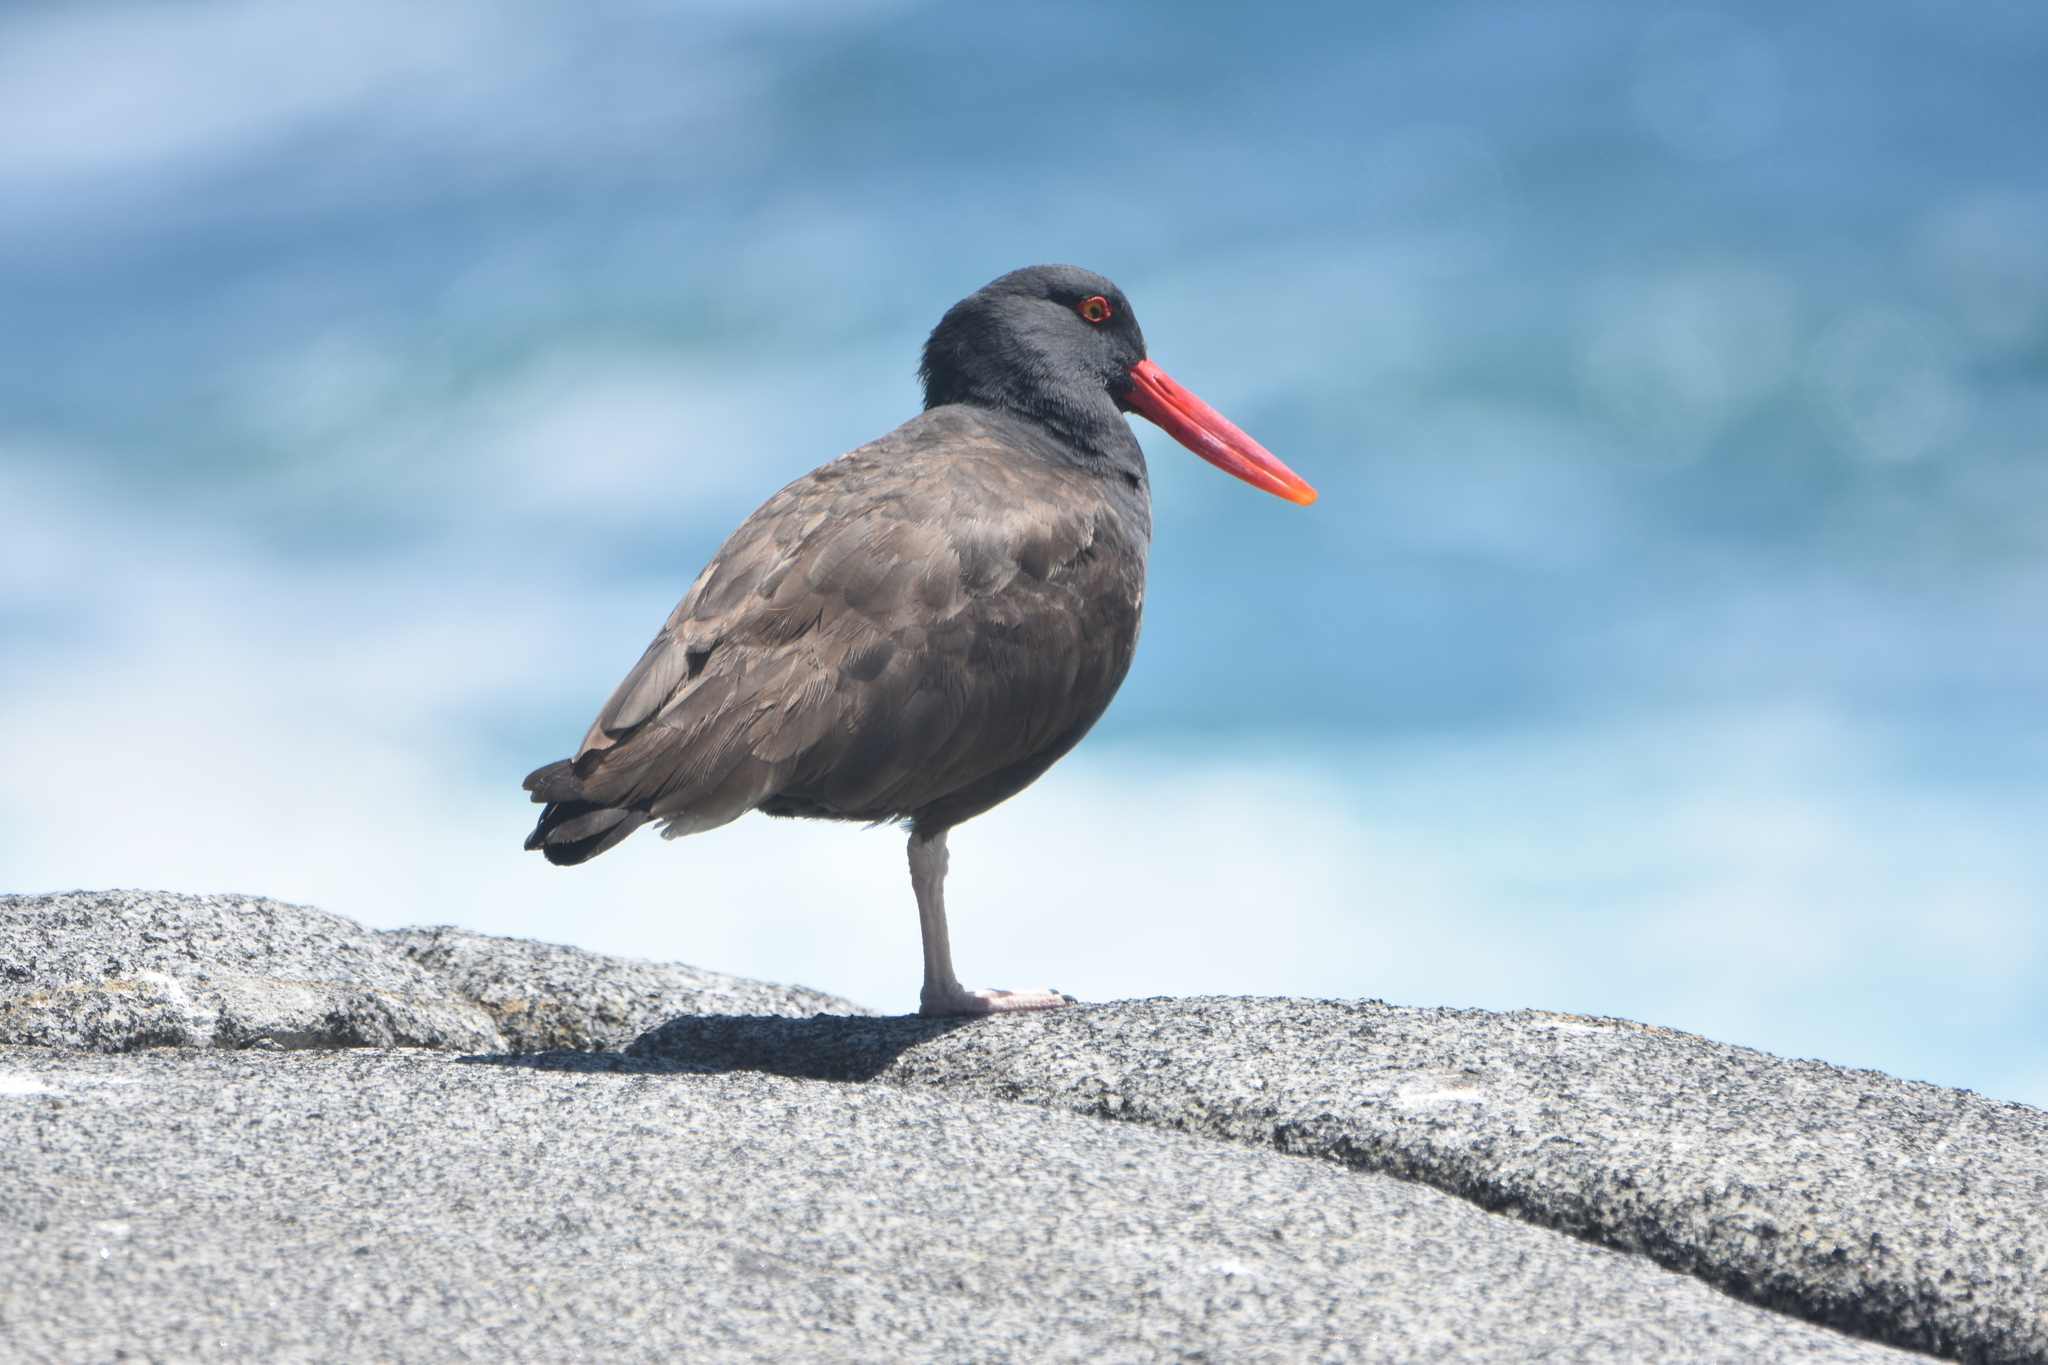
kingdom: Animalia
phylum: Chordata
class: Aves
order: Charadriiformes
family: Haematopodidae
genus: Haematopus
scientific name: Haematopus ater
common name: Blackish oystercatcher
